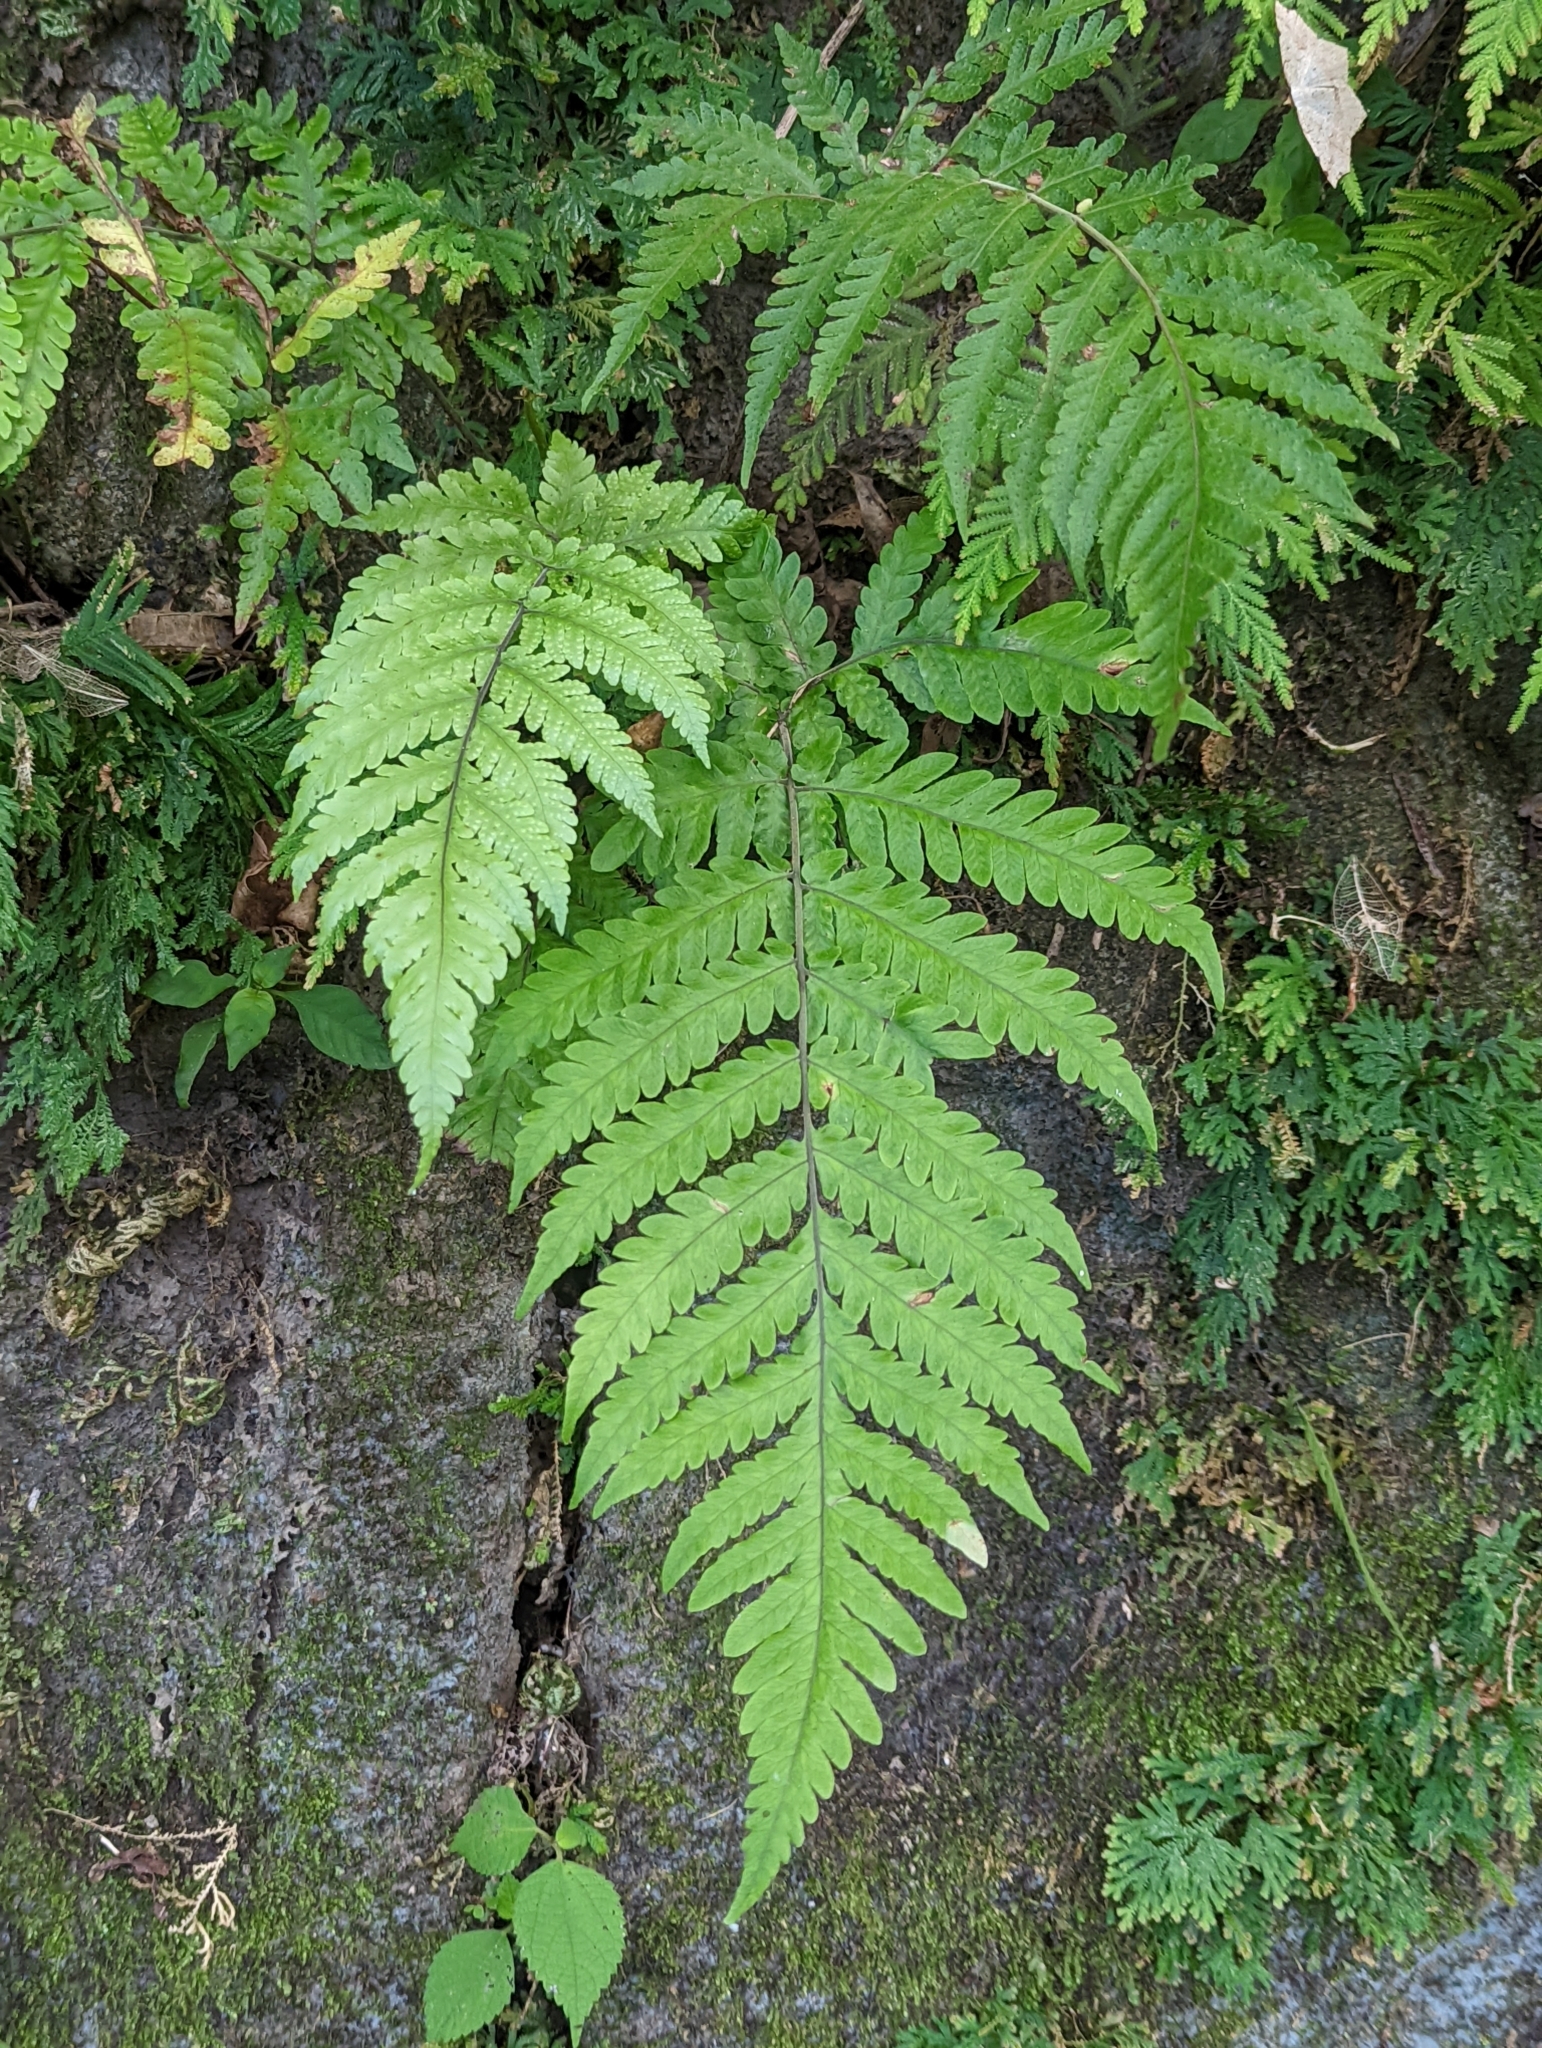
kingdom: Plantae
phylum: Tracheophyta
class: Polypodiopsida
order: Polypodiales
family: Tectariaceae
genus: Tectaria
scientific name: Tectaria dissecta
